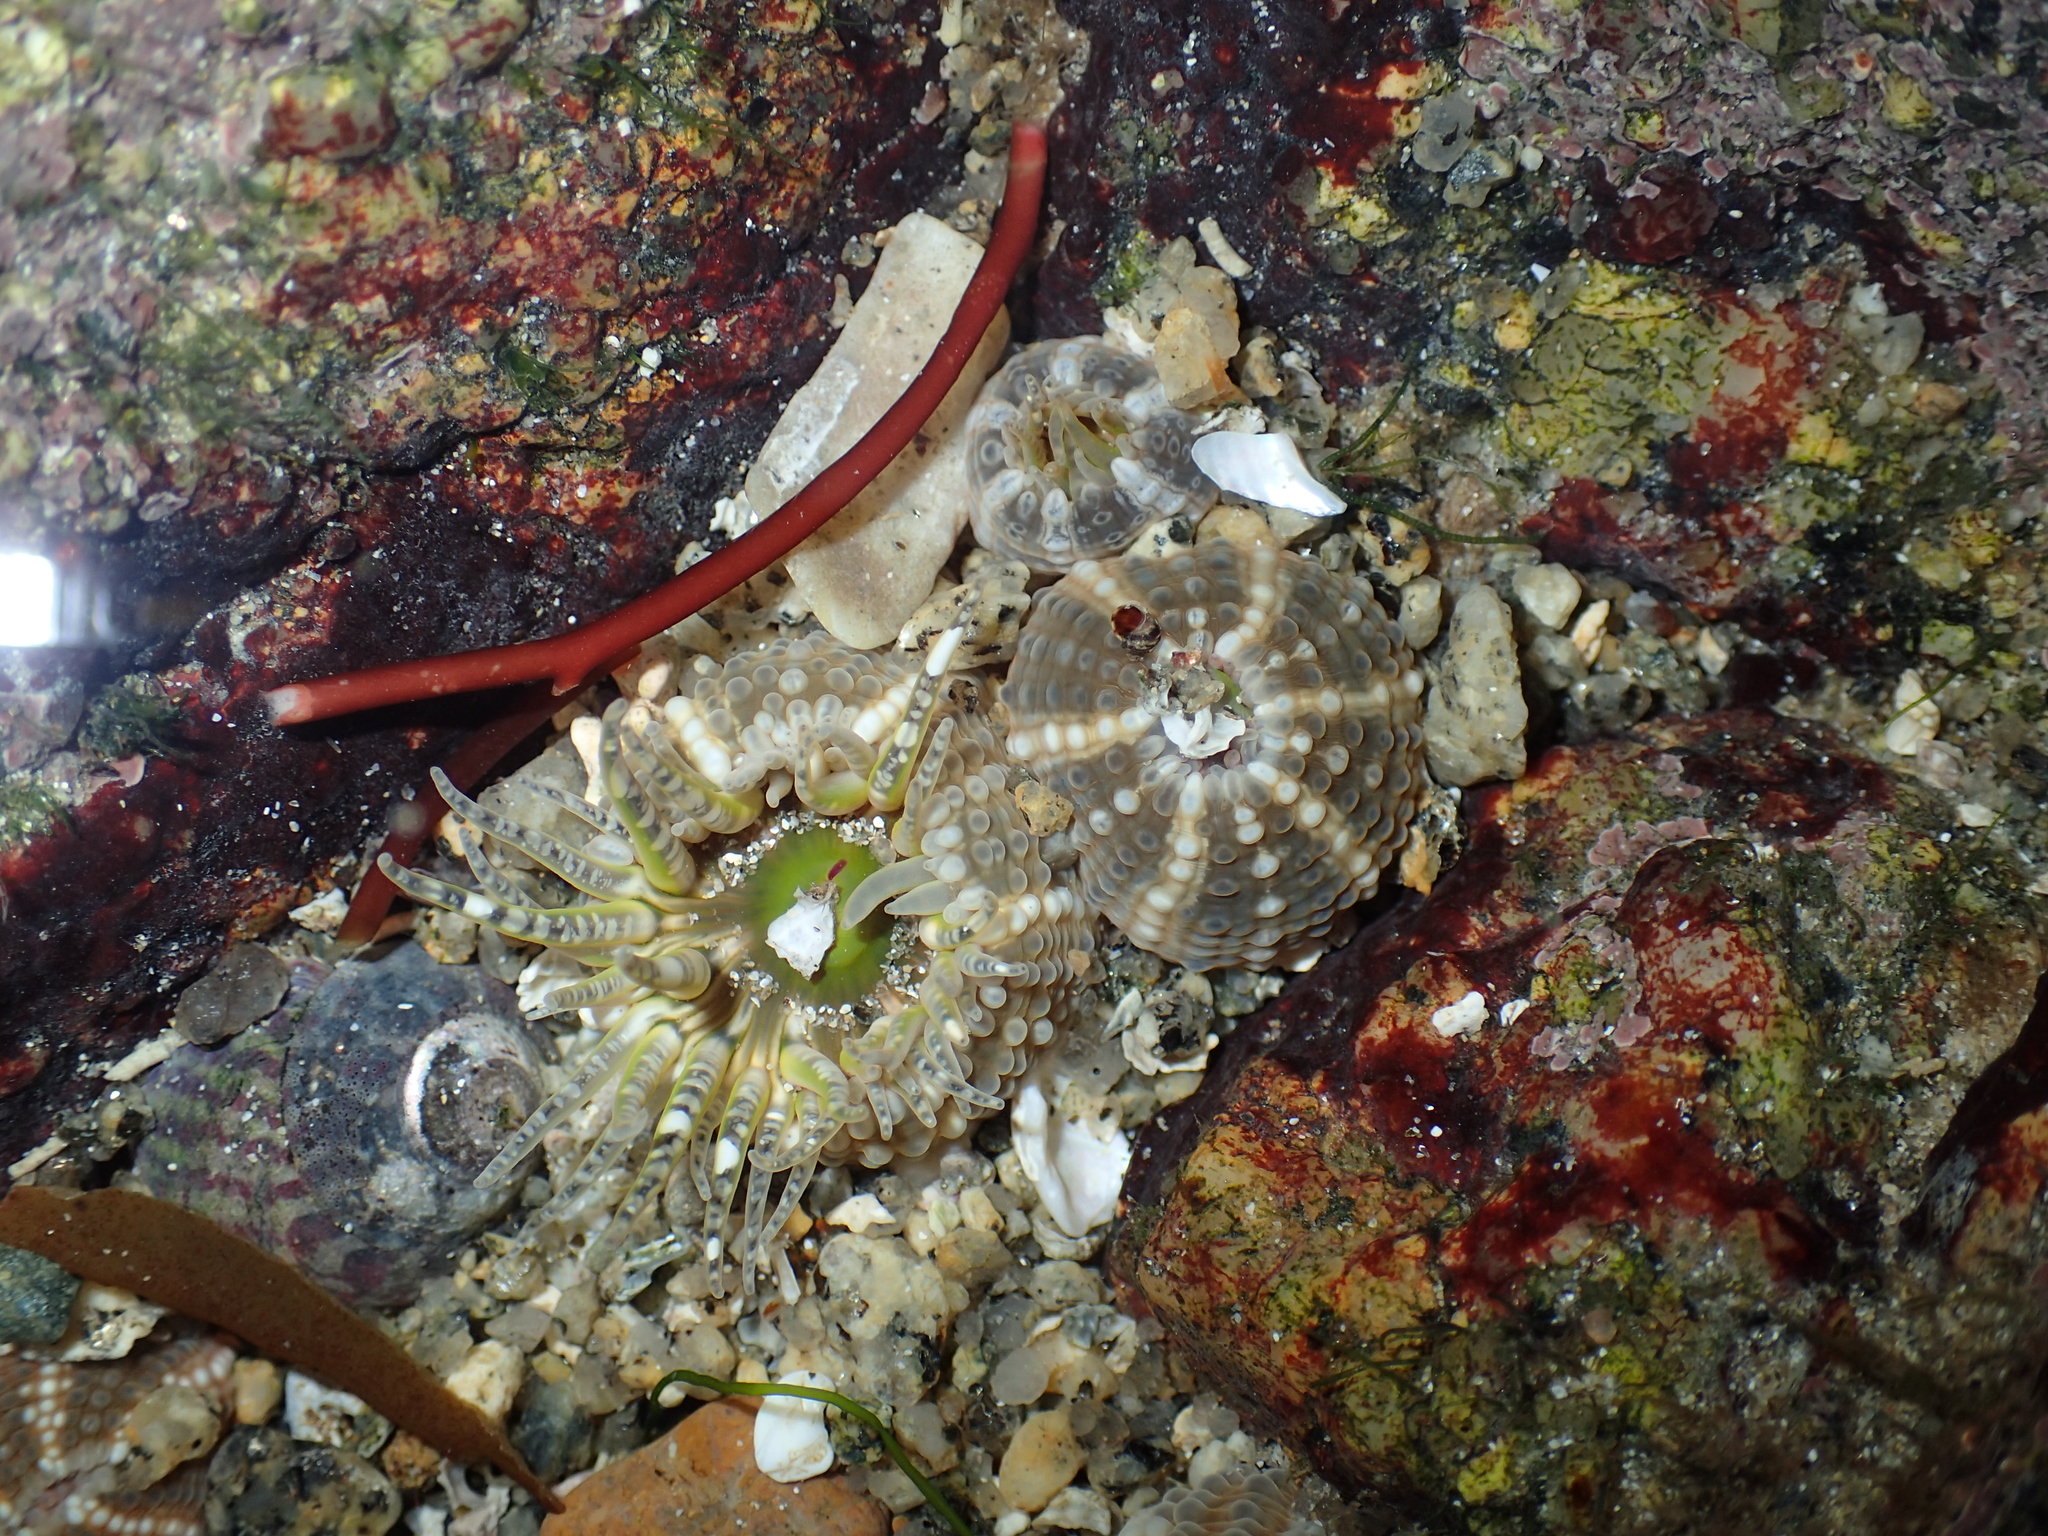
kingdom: Animalia
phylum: Cnidaria
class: Anthozoa
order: Actiniaria
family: Actiniidae
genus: Bunodactis
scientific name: Bunodactis verrucosa
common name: Gem anemone
